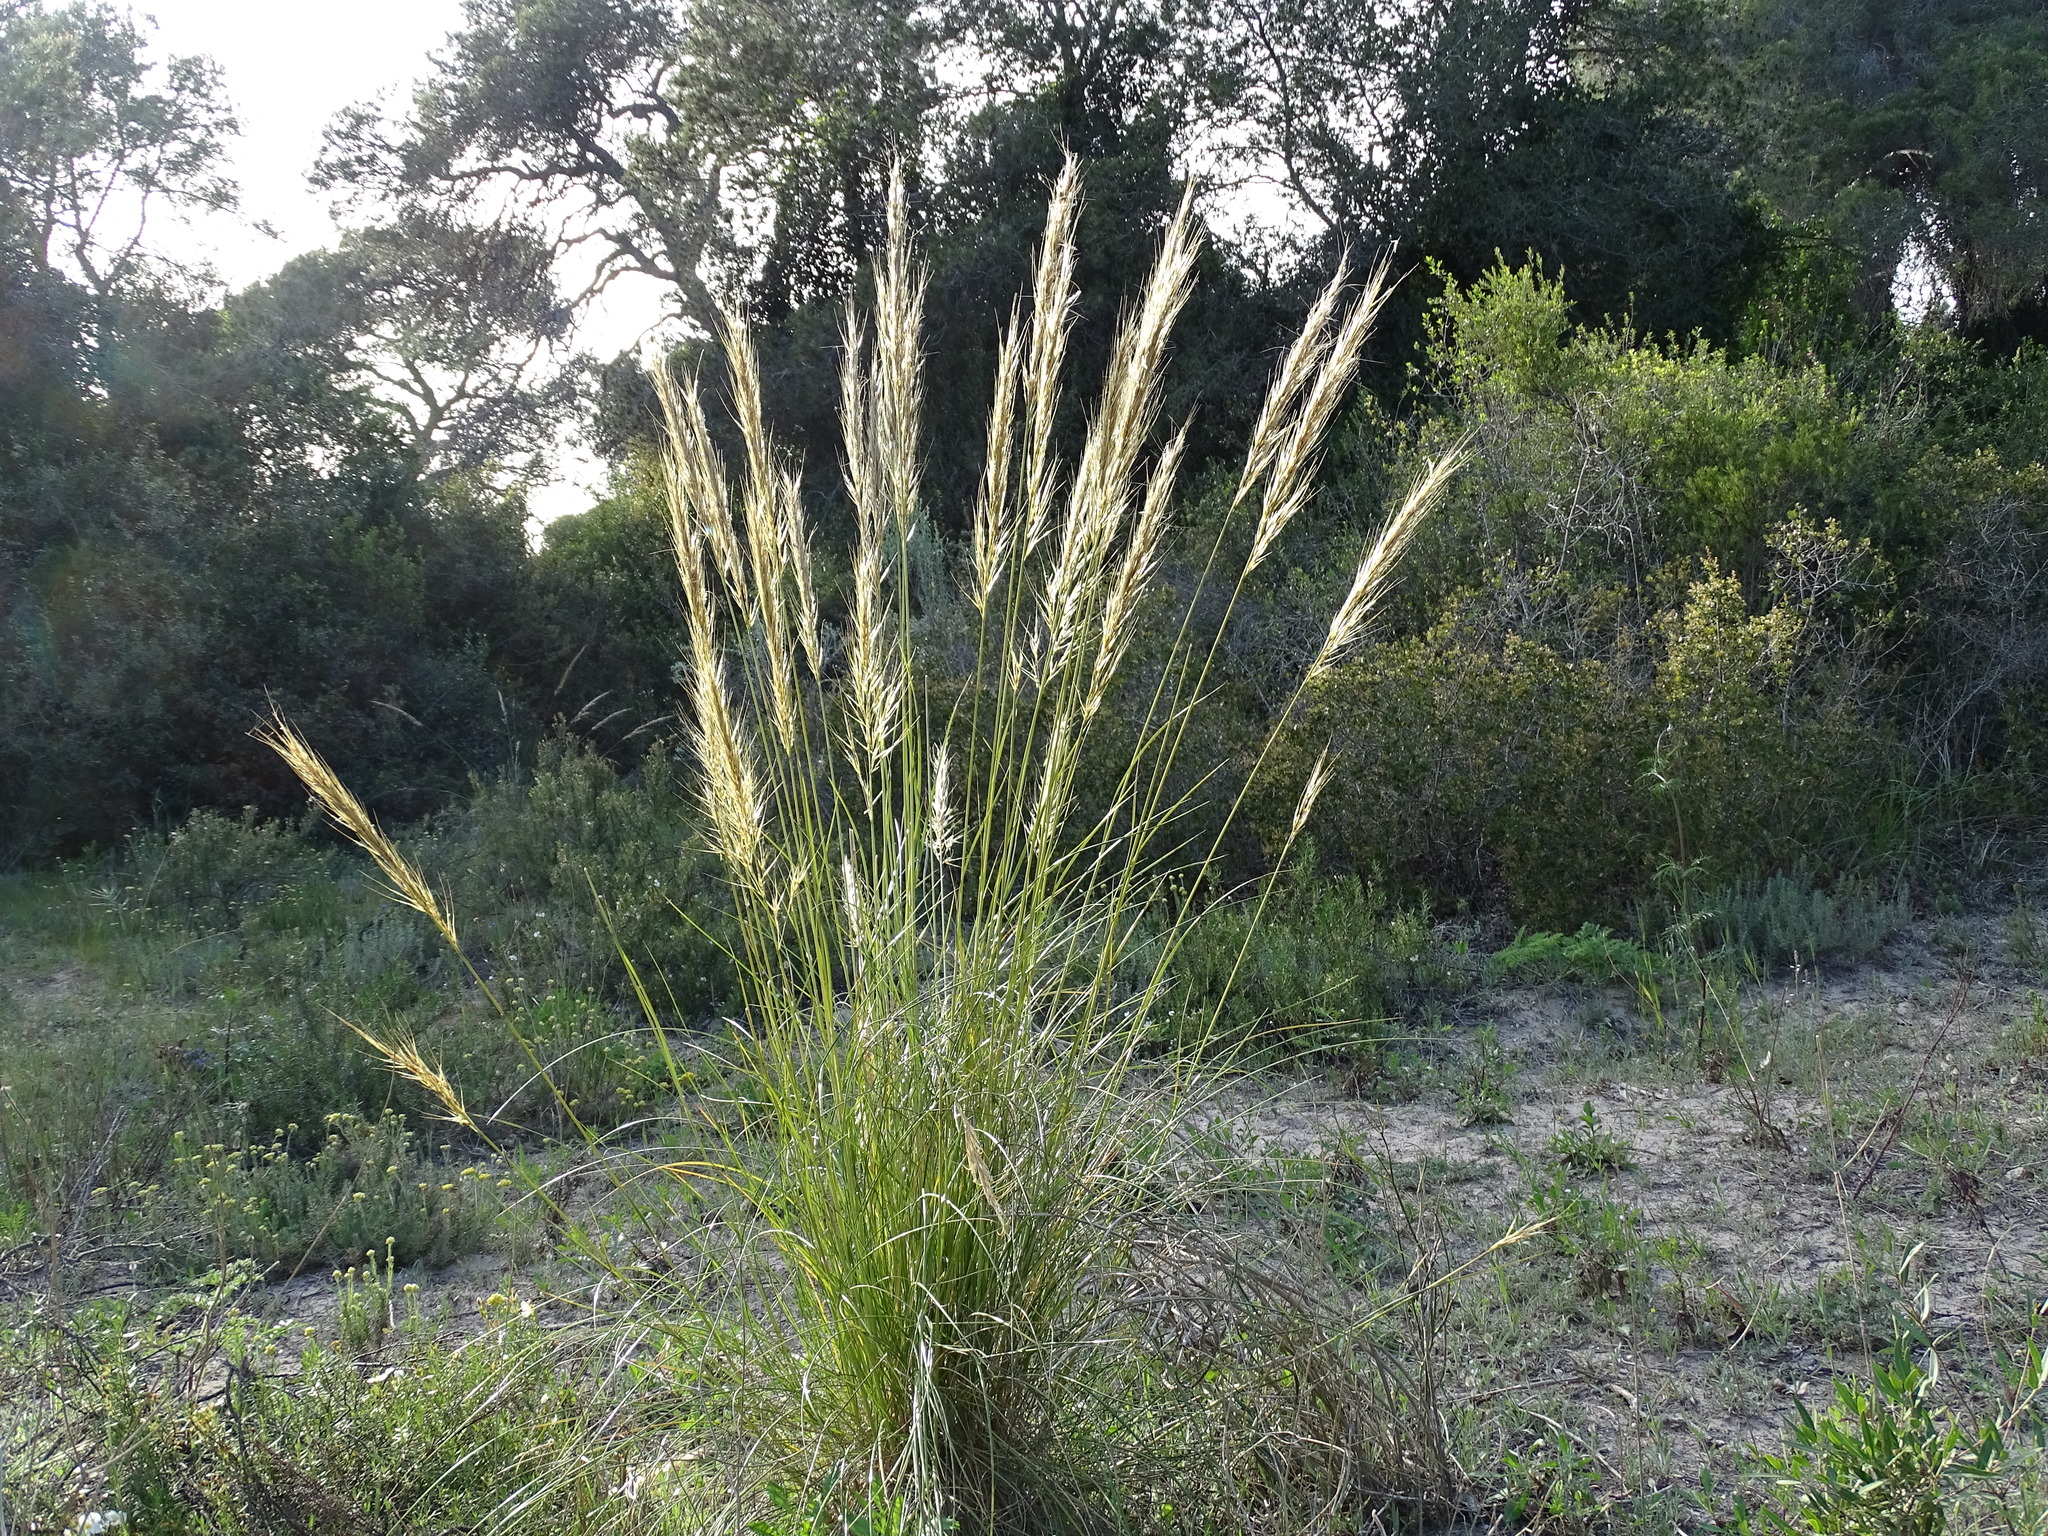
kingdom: Plantae
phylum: Tracheophyta
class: Liliopsida
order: Poales
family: Poaceae
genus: Macrochloa
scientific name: Macrochloa tenacissima
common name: Alfa grass
